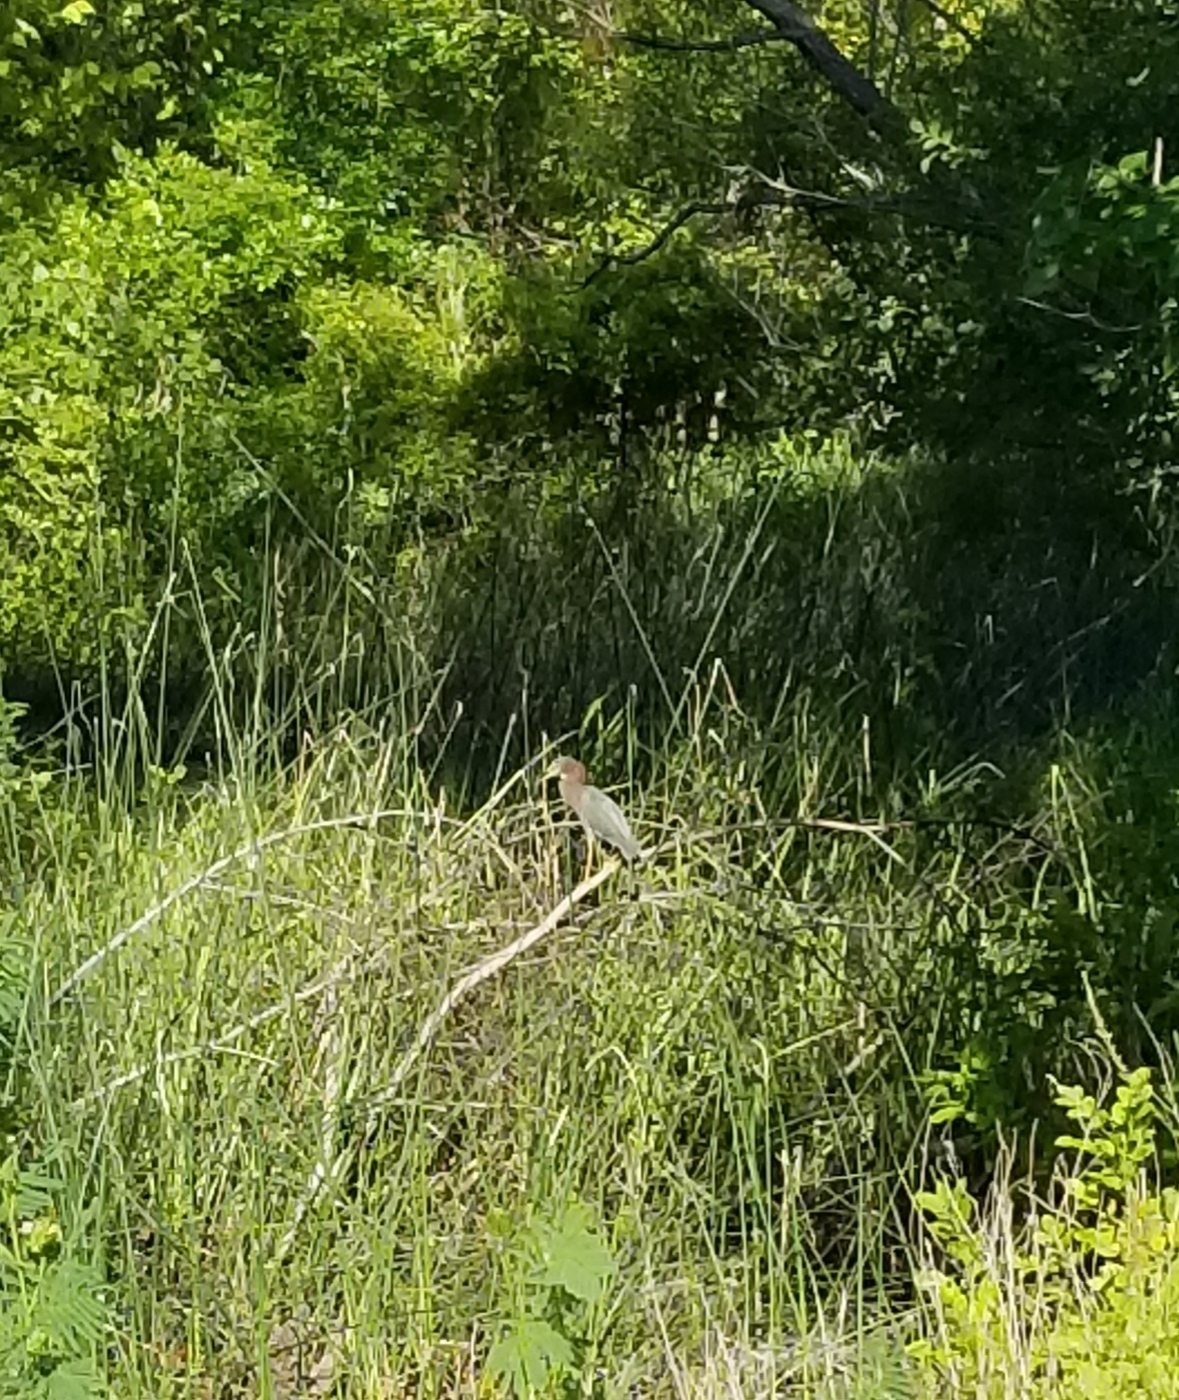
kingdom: Animalia
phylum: Chordata
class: Aves
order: Pelecaniformes
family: Ardeidae
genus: Butorides
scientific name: Butorides virescens
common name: Green heron
